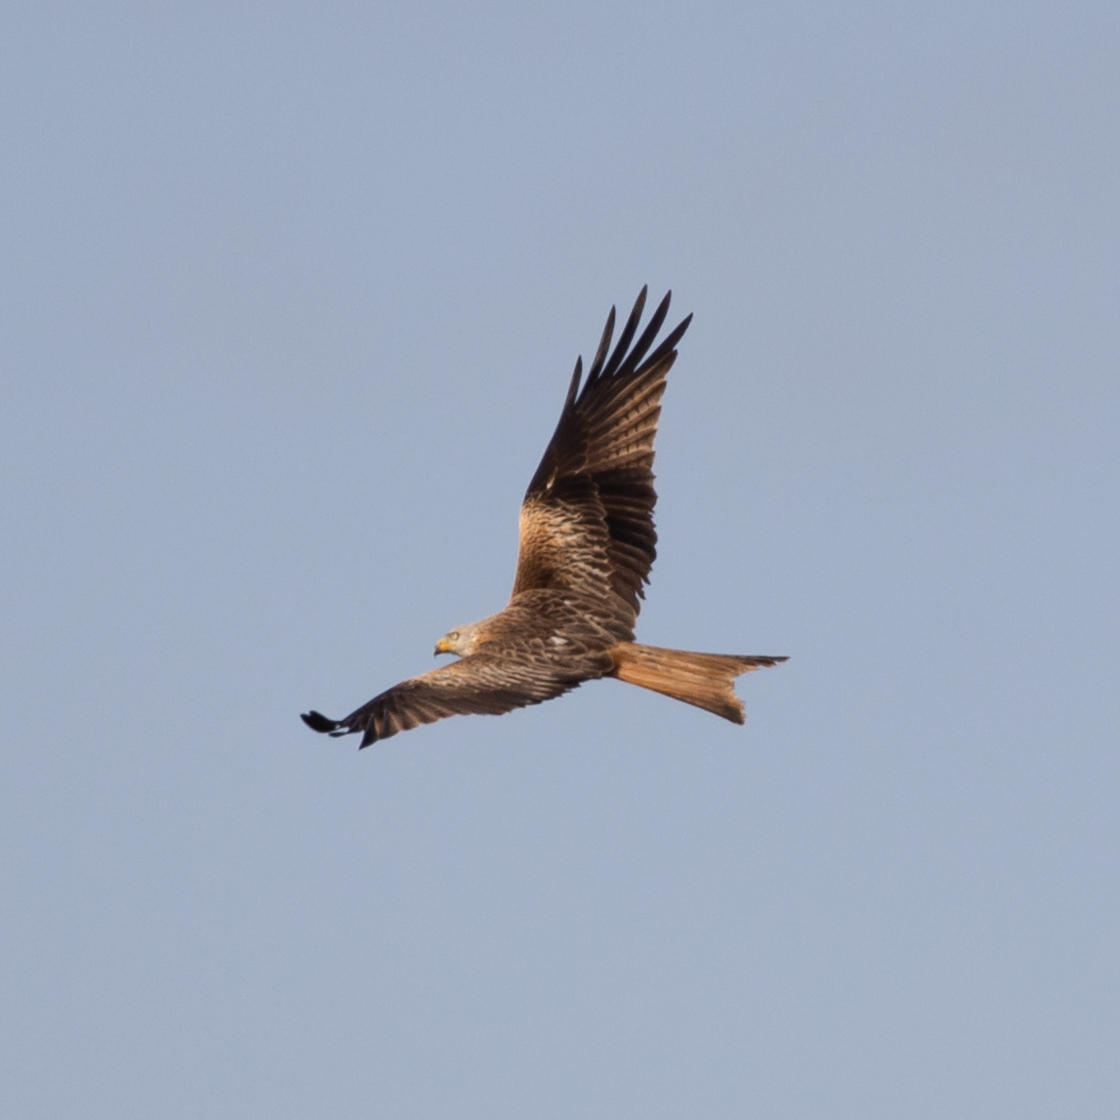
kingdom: Animalia
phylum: Chordata
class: Aves
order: Accipitriformes
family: Accipitridae
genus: Milvus
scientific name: Milvus milvus
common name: Red kite
